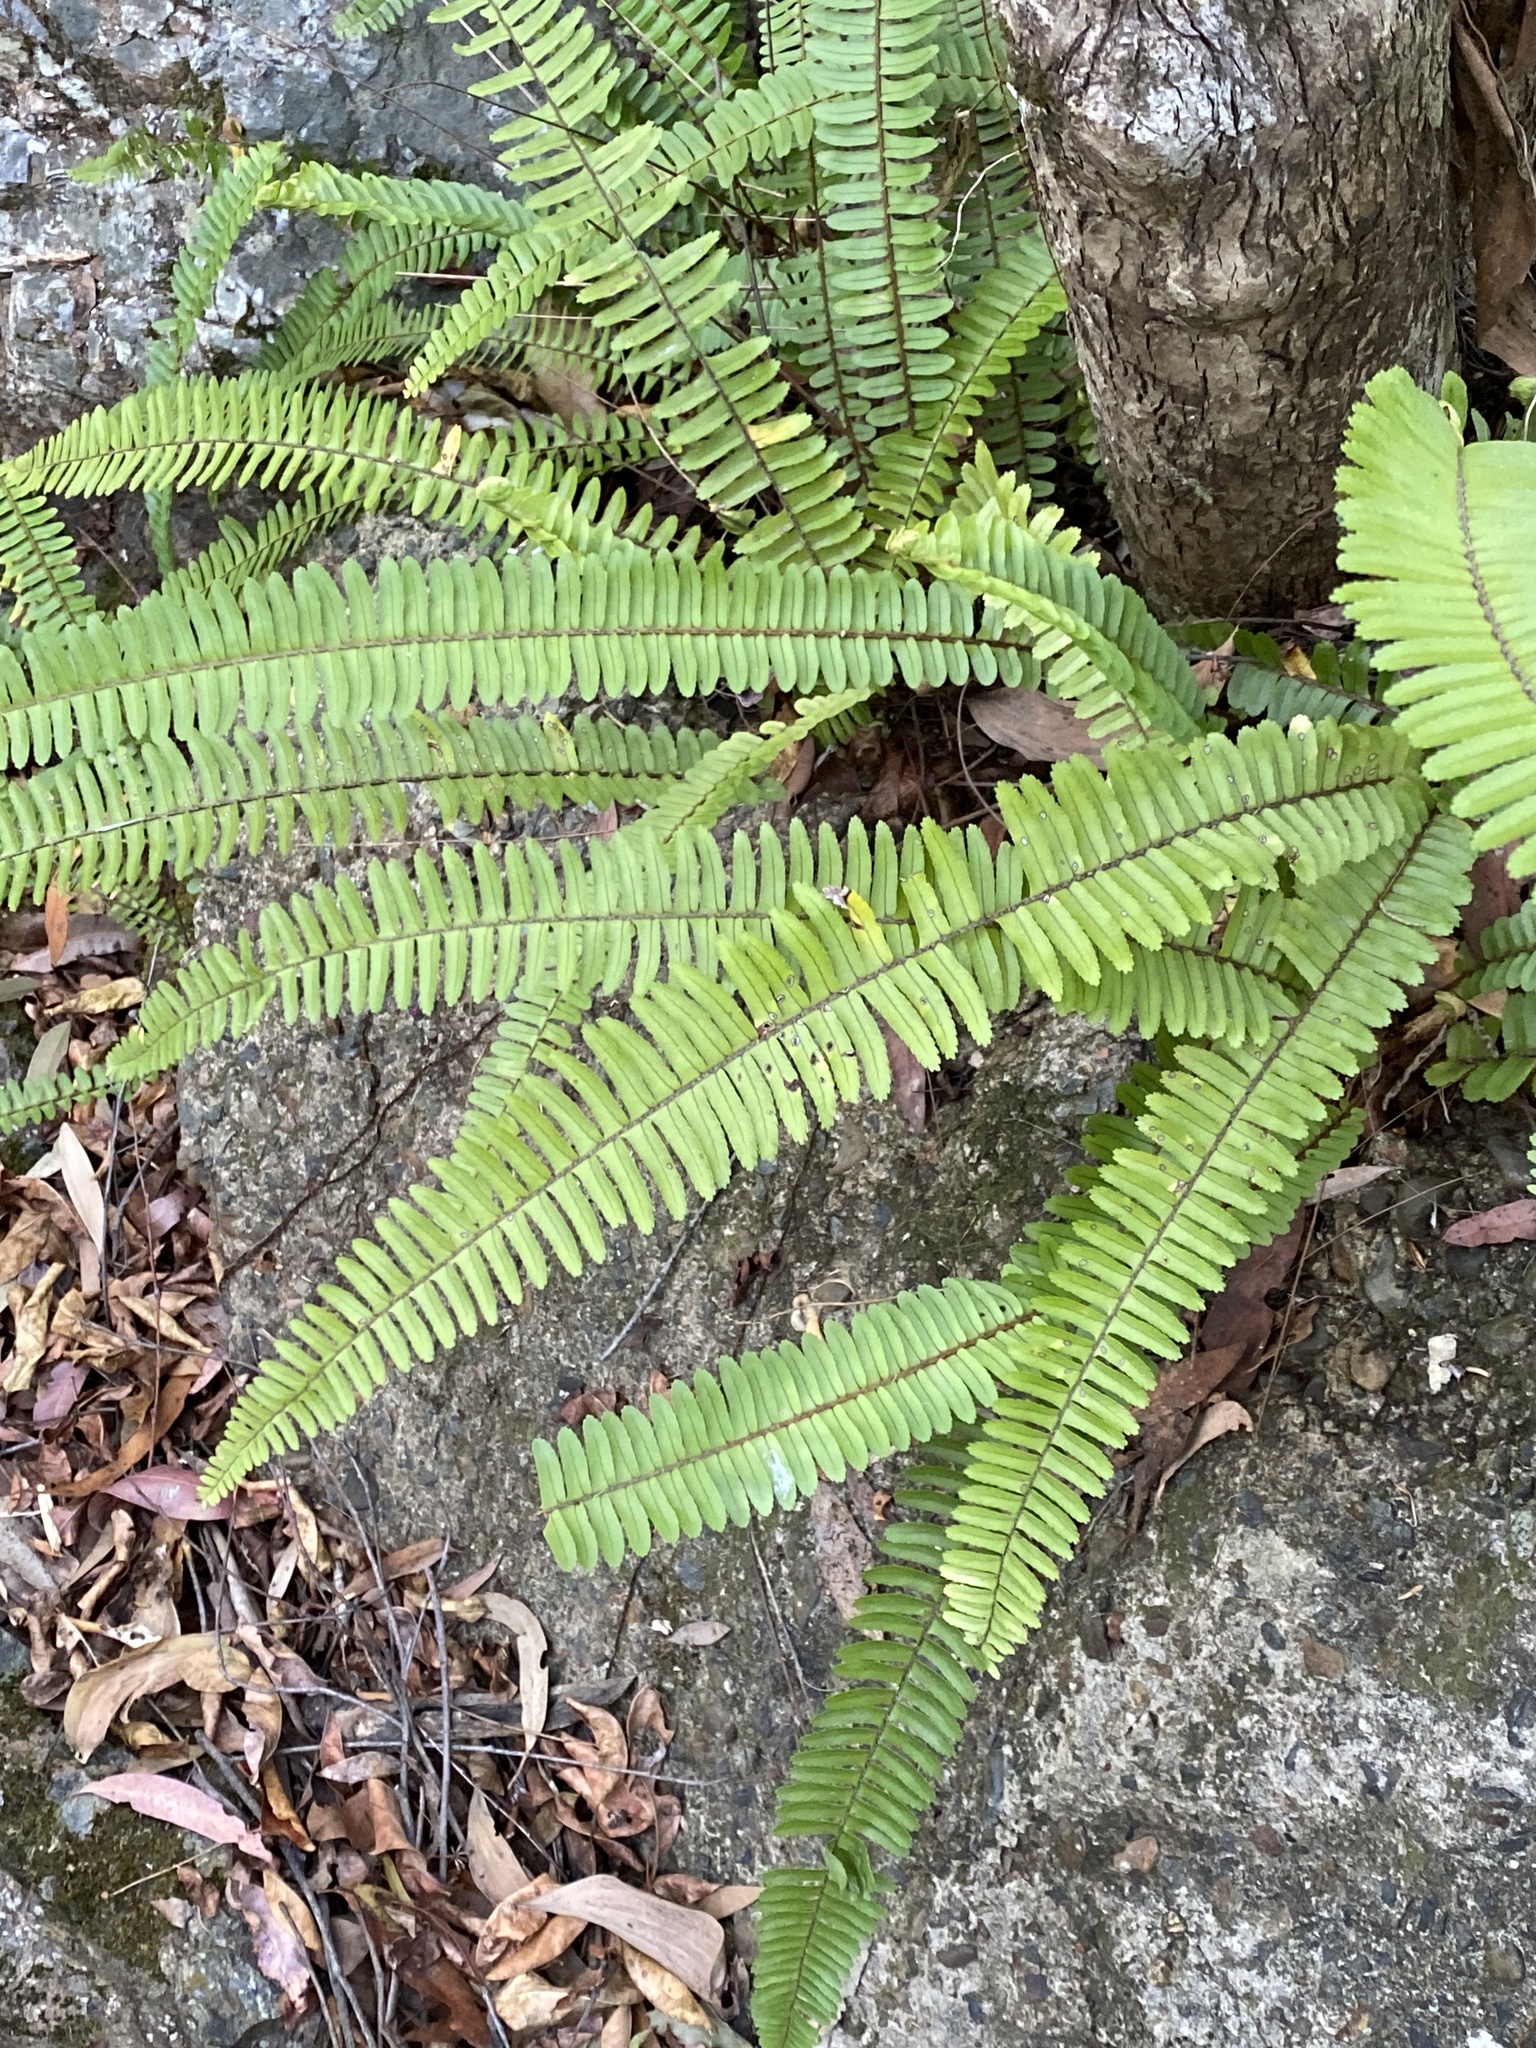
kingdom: Plantae
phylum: Tracheophyta
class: Polypodiopsida
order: Polypodiales
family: Nephrolepidaceae
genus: Nephrolepis
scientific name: Nephrolepis cordifolia
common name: Narrow swordfern
